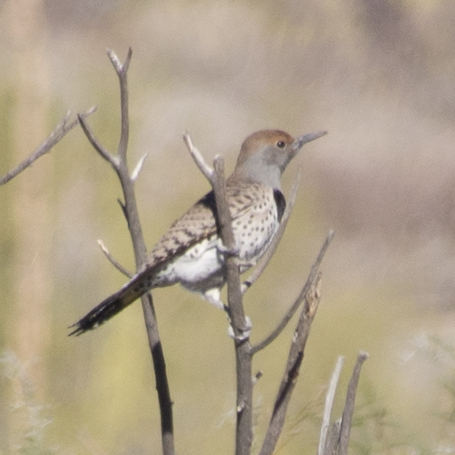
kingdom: Animalia
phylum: Chordata
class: Aves
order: Piciformes
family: Picidae
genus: Colaptes
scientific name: Colaptes chrysoides
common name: Gilded flicker
